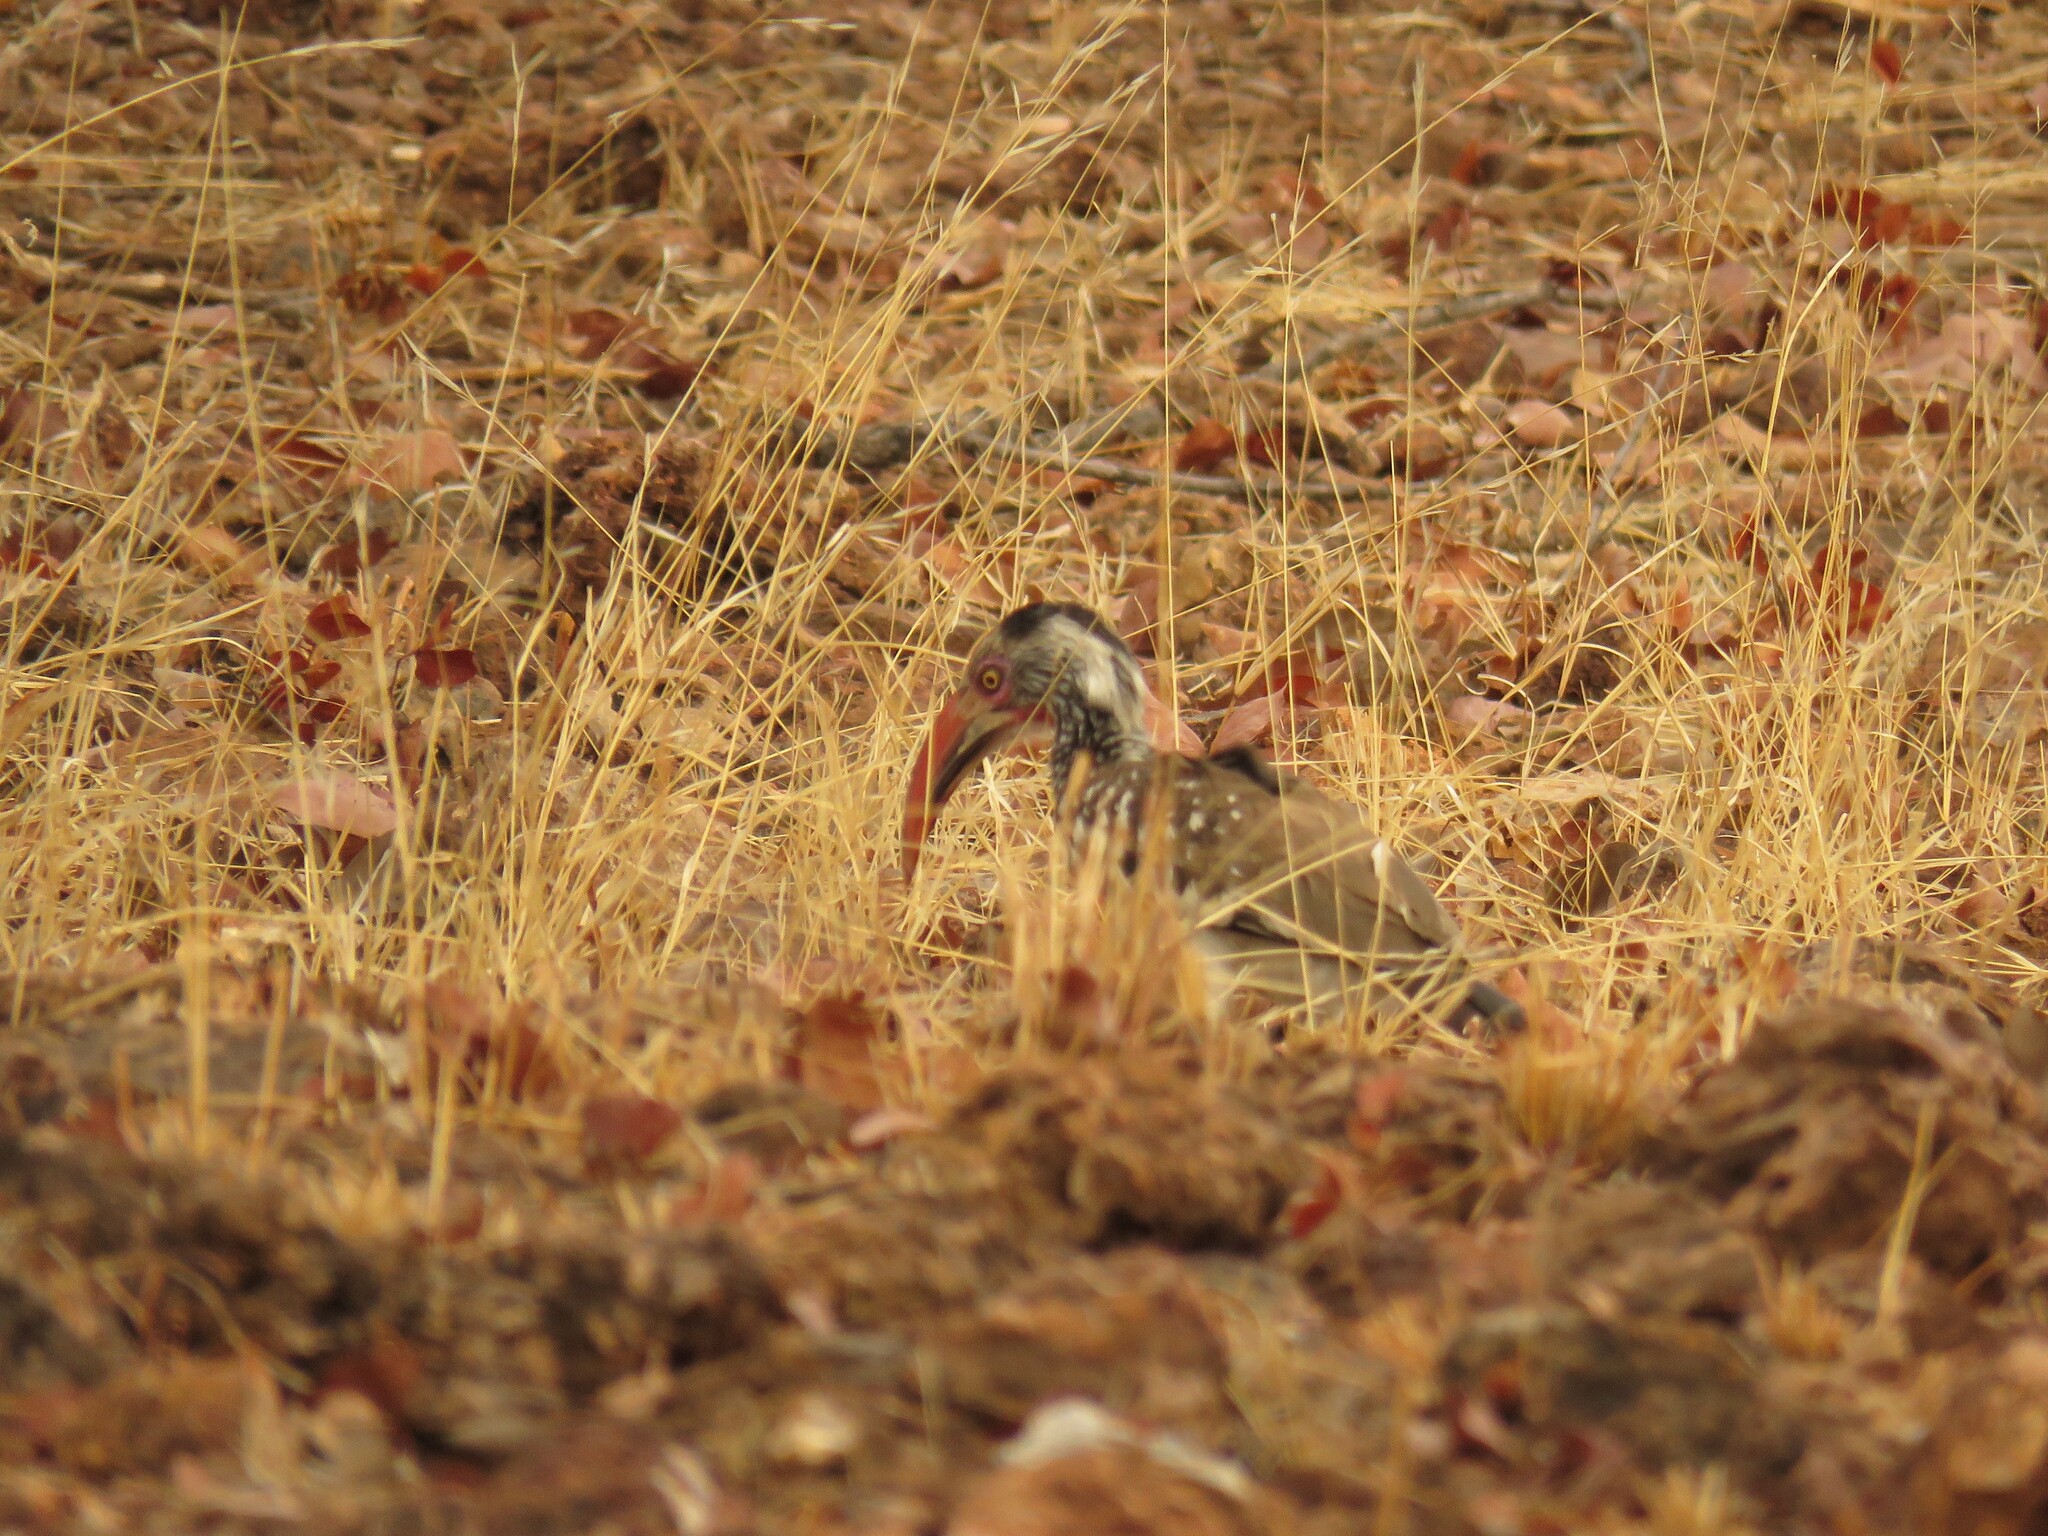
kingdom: Animalia
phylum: Chordata
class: Aves
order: Bucerotiformes
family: Bucerotidae
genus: Tockus
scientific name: Tockus rufirostris
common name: Southern red-billed hornbill
